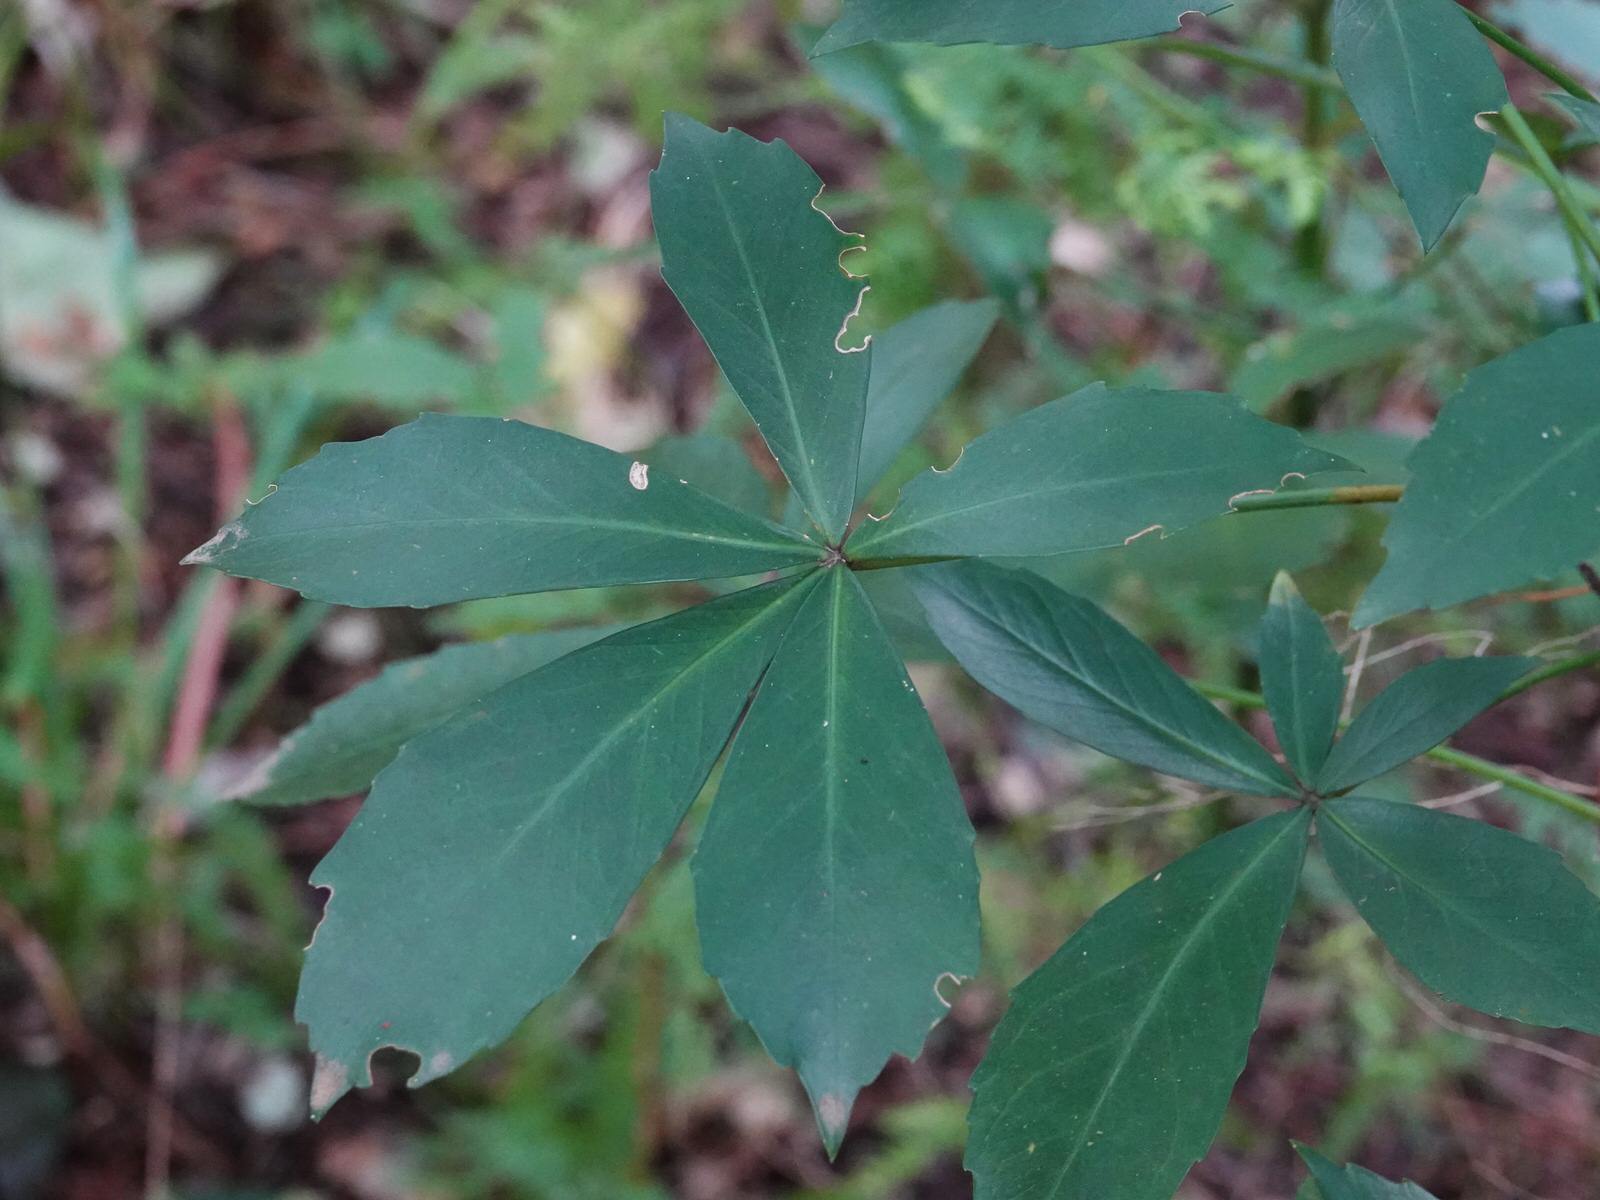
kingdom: Plantae
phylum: Tracheophyta
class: Magnoliopsida
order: Apiales
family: Araliaceae
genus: Pseudopanax
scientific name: Pseudopanax lessonii
